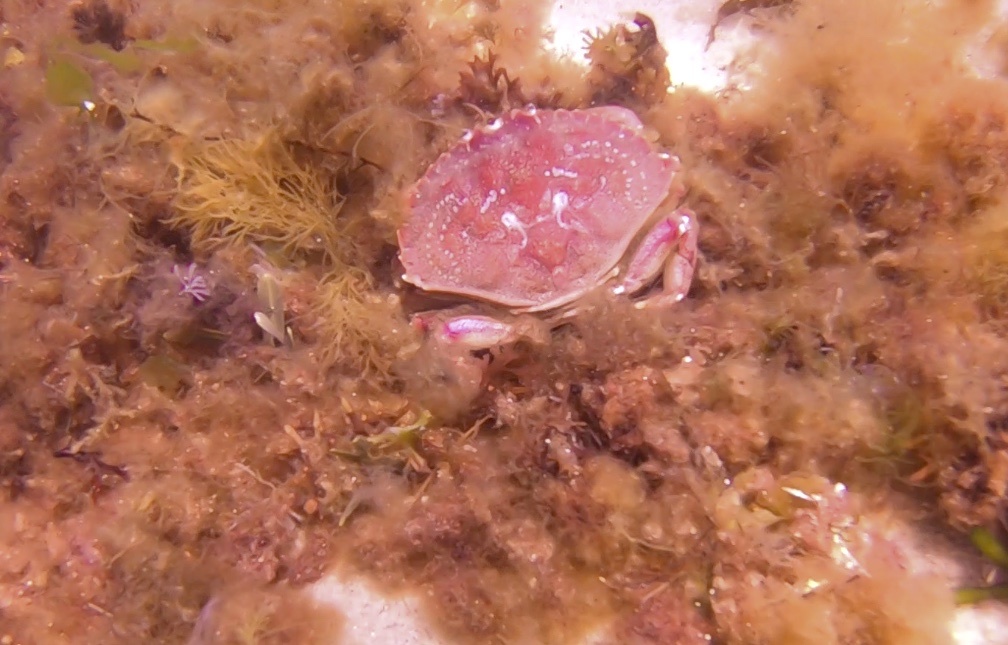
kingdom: Animalia
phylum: Arthropoda
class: Malacostraca
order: Decapoda
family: Cancridae
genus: Cancer
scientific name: Cancer irroratus
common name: Atlantic rock crab
